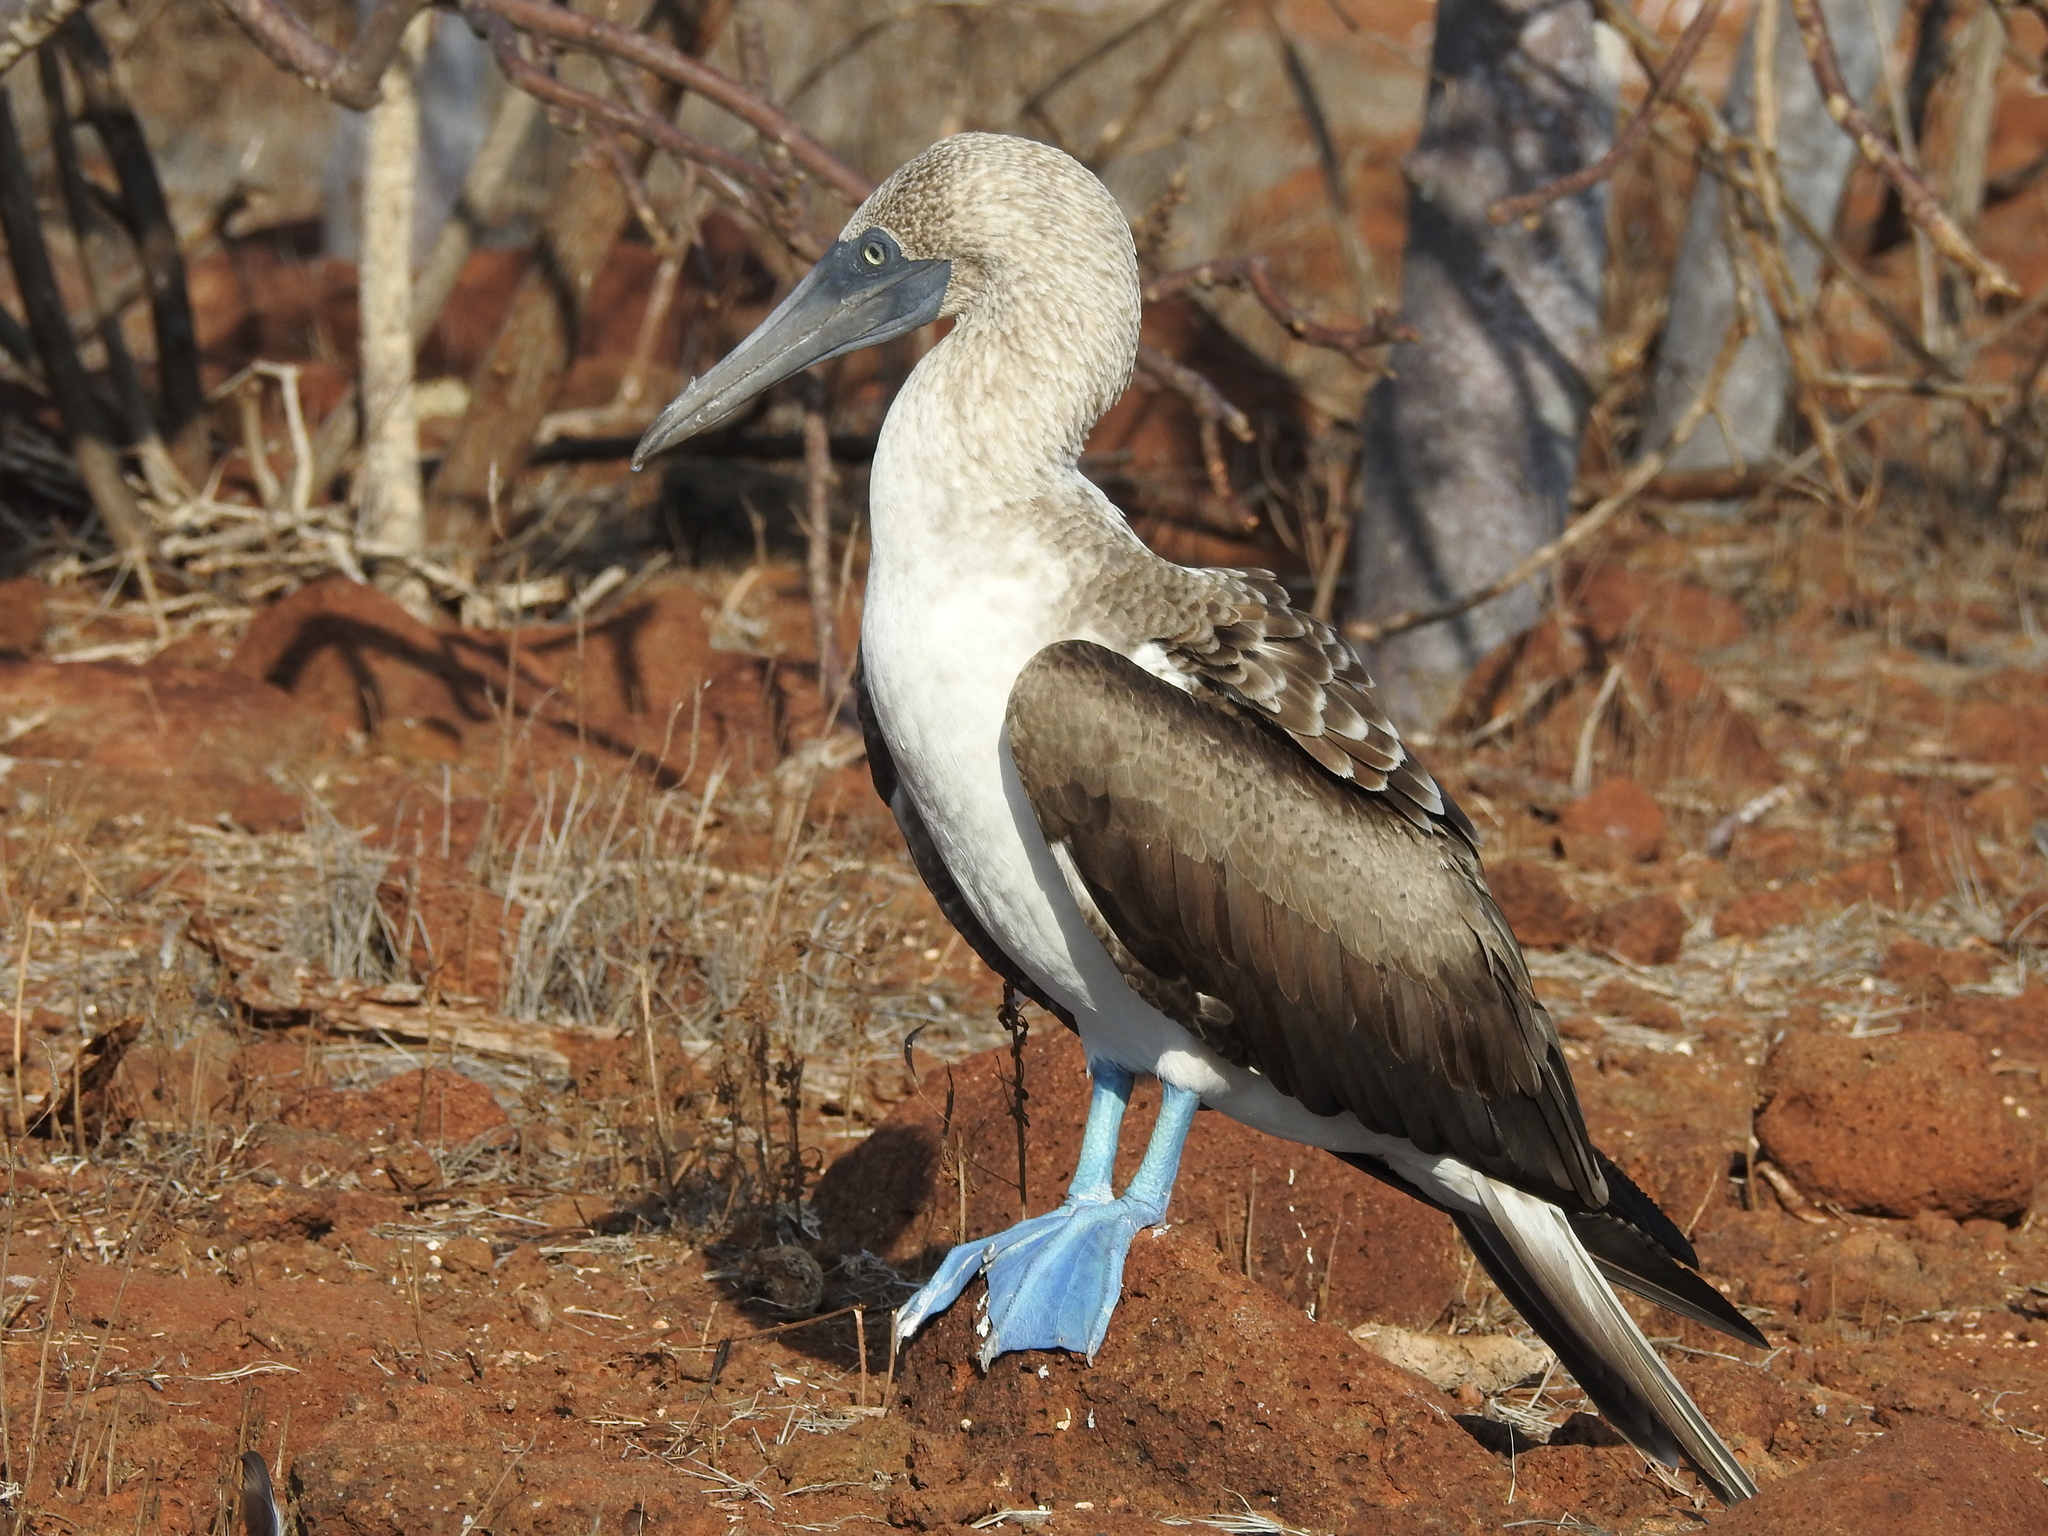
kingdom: Animalia
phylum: Chordata
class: Aves
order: Suliformes
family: Sulidae
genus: Sula
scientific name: Sula nebouxii
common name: Blue-footed booby
